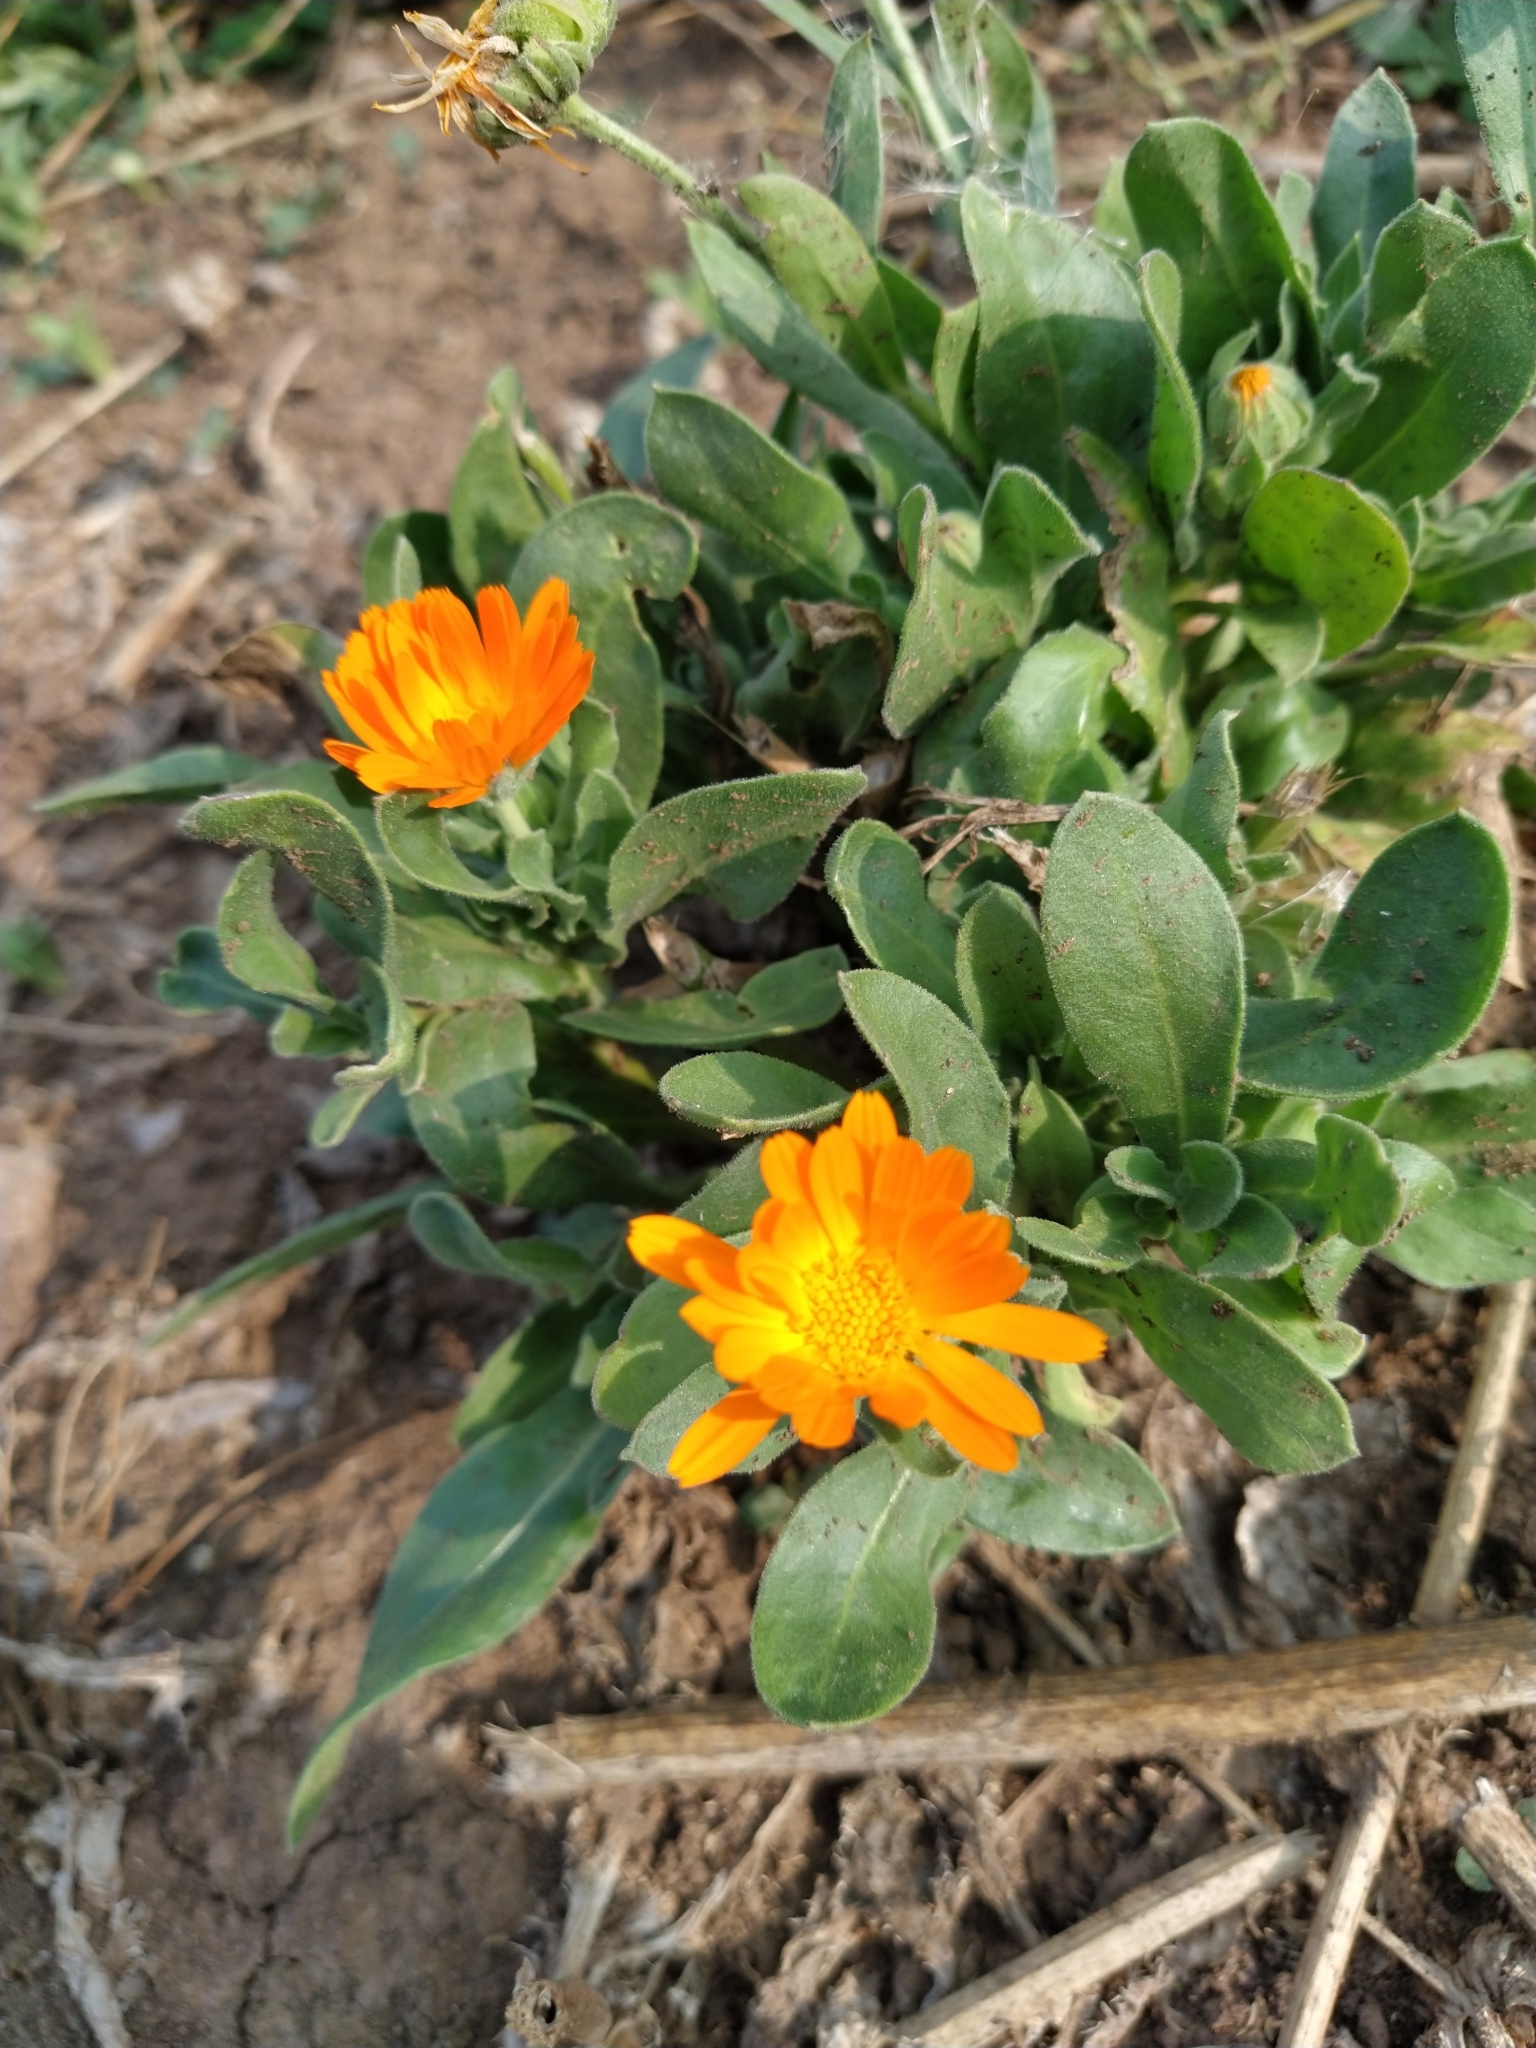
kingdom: Plantae
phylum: Tracheophyta
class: Magnoliopsida
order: Asterales
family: Asteraceae
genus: Calendula
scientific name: Calendula officinalis
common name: Pot marigold
